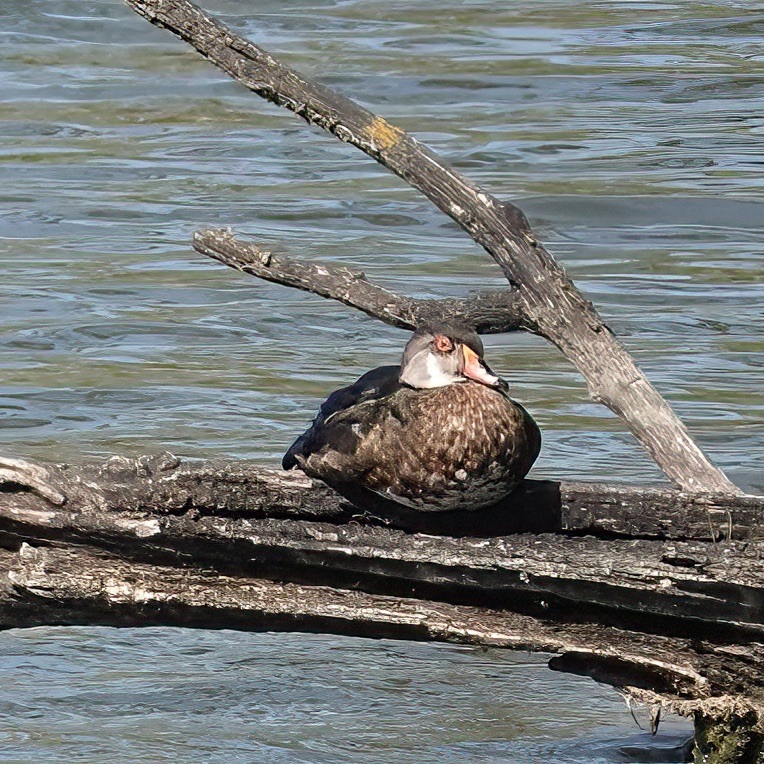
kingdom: Animalia
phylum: Chordata
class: Aves
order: Anseriformes
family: Anatidae
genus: Aix
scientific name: Aix sponsa
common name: Wood duck
